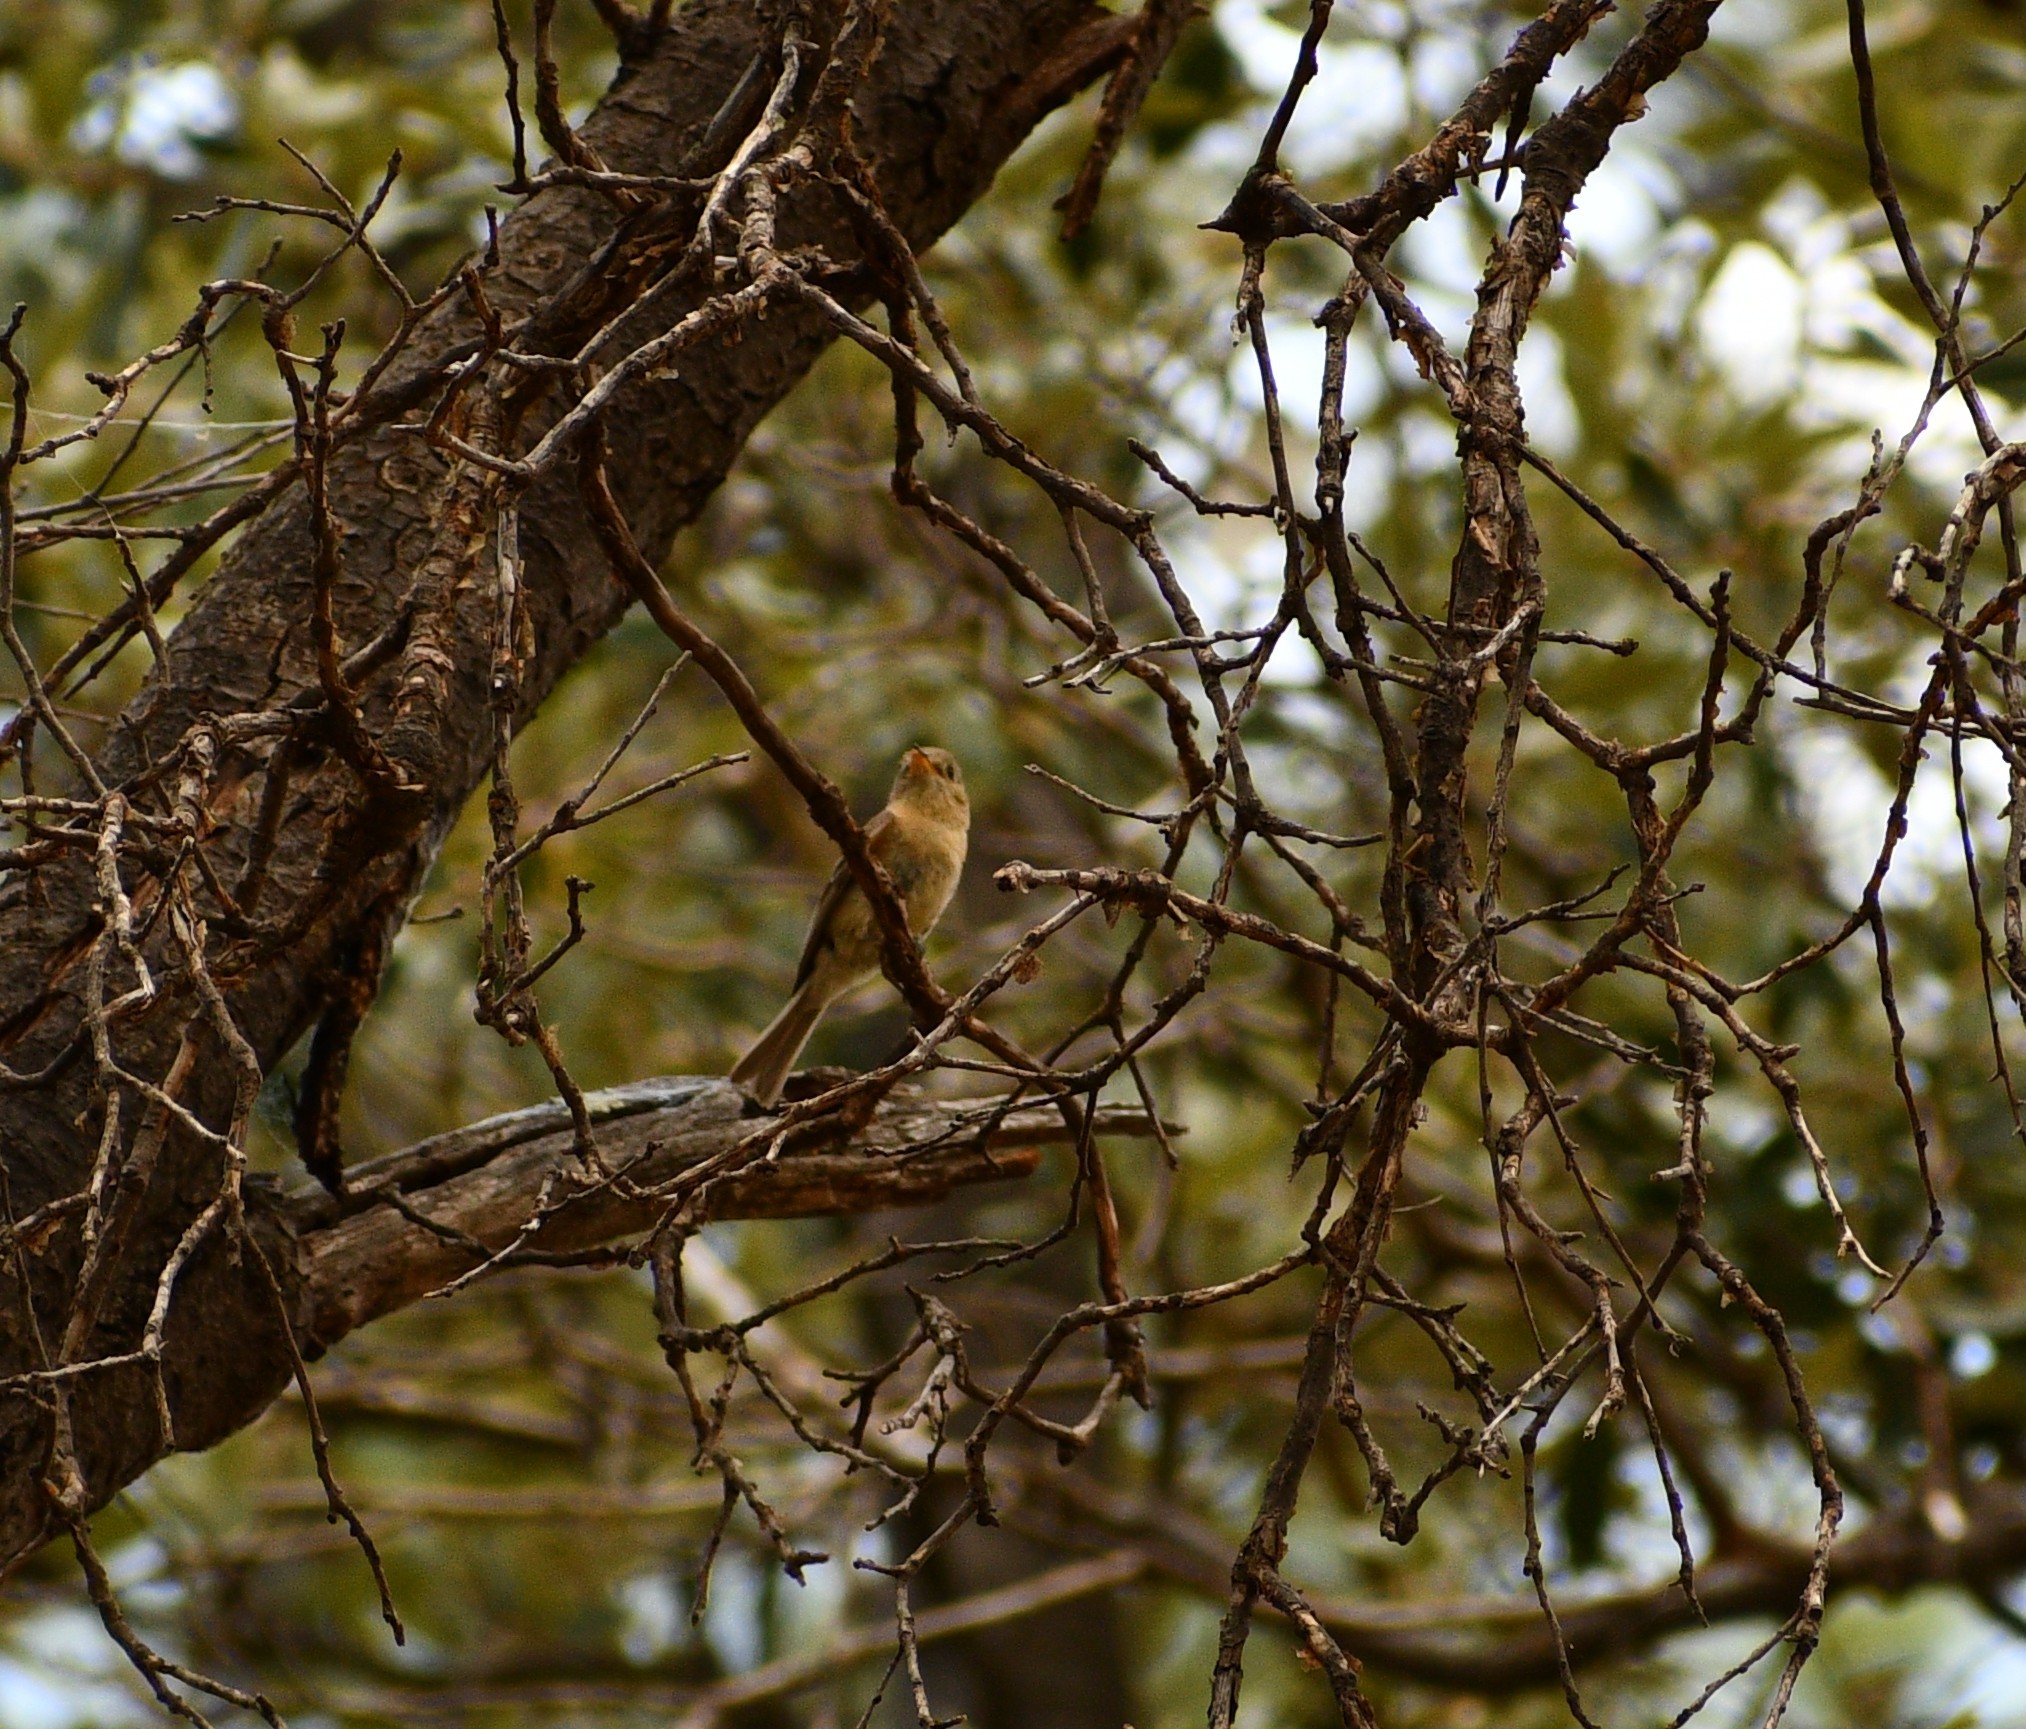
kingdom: Animalia
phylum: Chordata
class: Aves
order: Passeriformes
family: Tyrannidae
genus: Empidonax
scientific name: Empidonax fulvifrons
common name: Buff-breasted flycatcher
